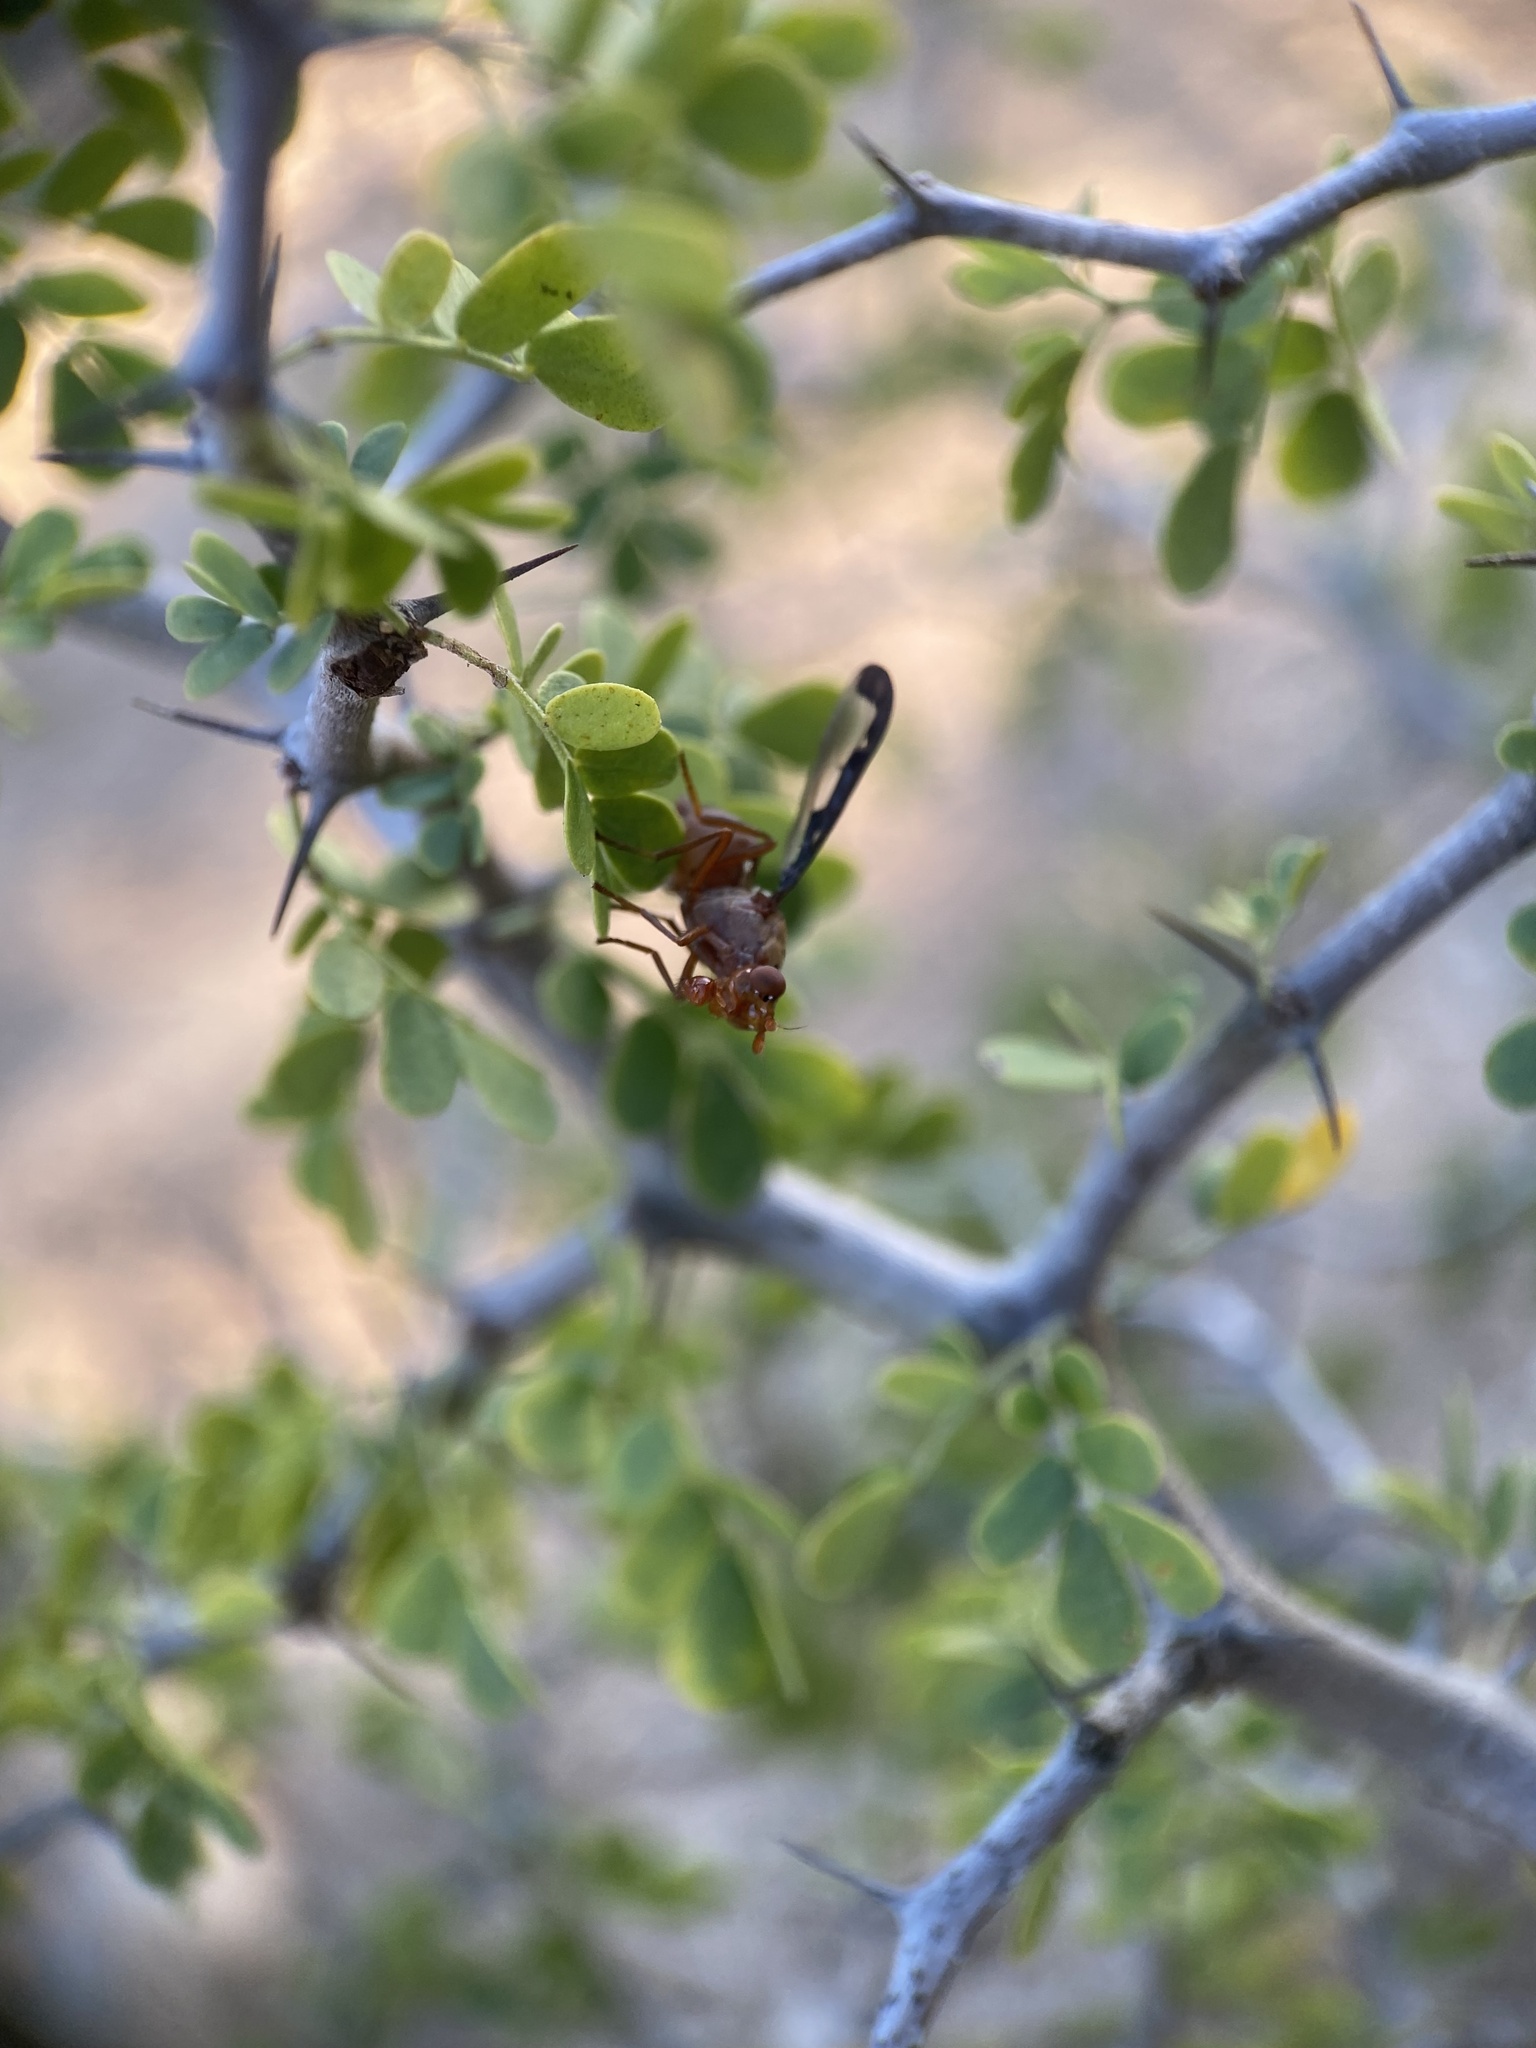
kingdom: Animalia
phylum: Arthropoda
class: Insecta
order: Diptera
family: Ulidiidae
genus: Diacrita
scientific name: Diacrita costalis
